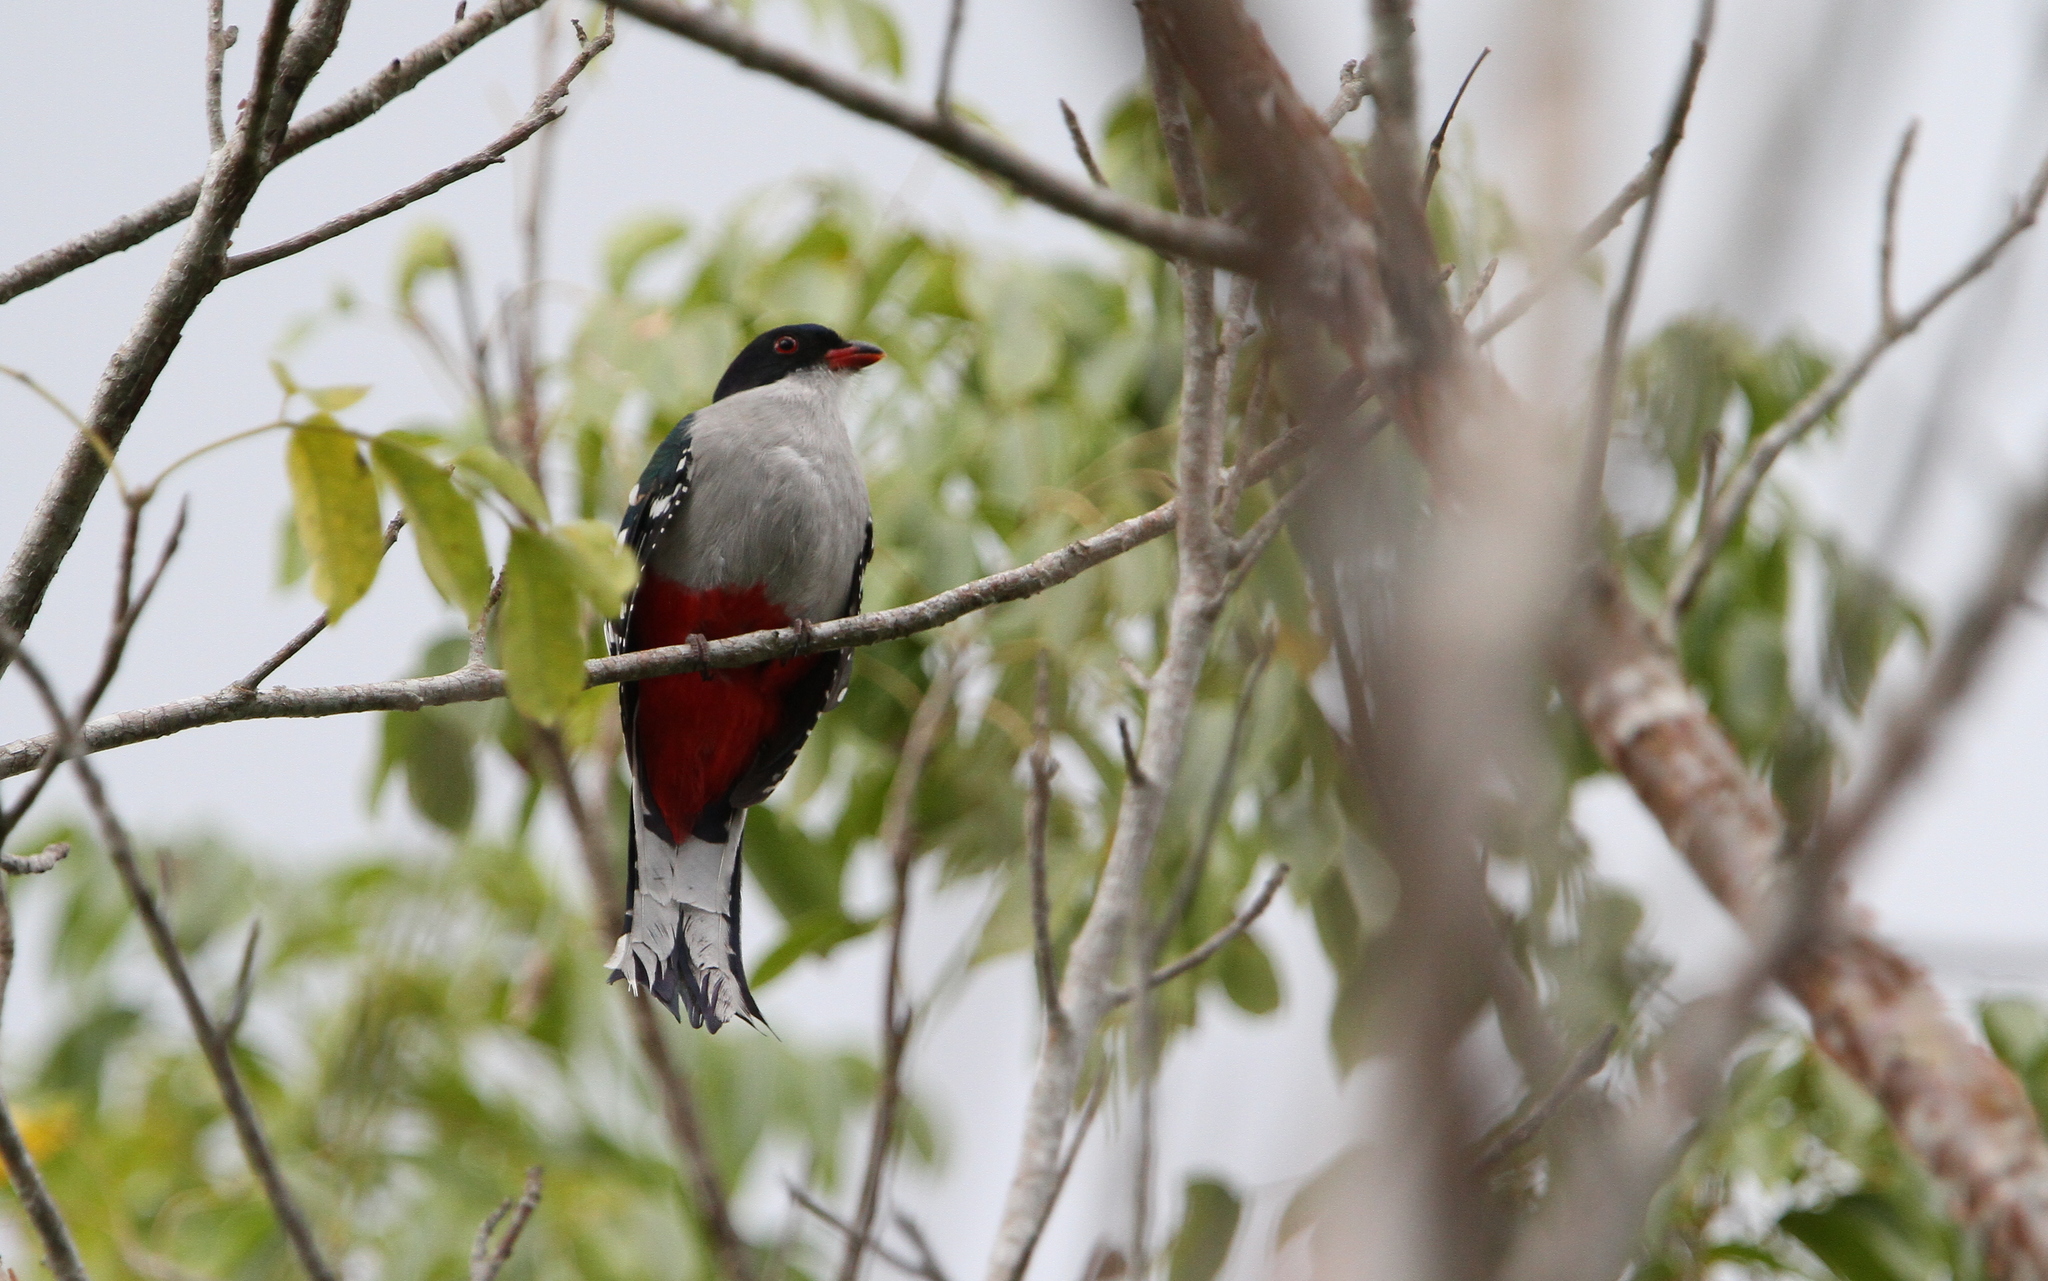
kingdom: Animalia
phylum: Chordata
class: Aves
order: Trogoniformes
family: Trogonidae
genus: Priotelus
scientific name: Priotelus temnurus
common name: Cuban trogon
